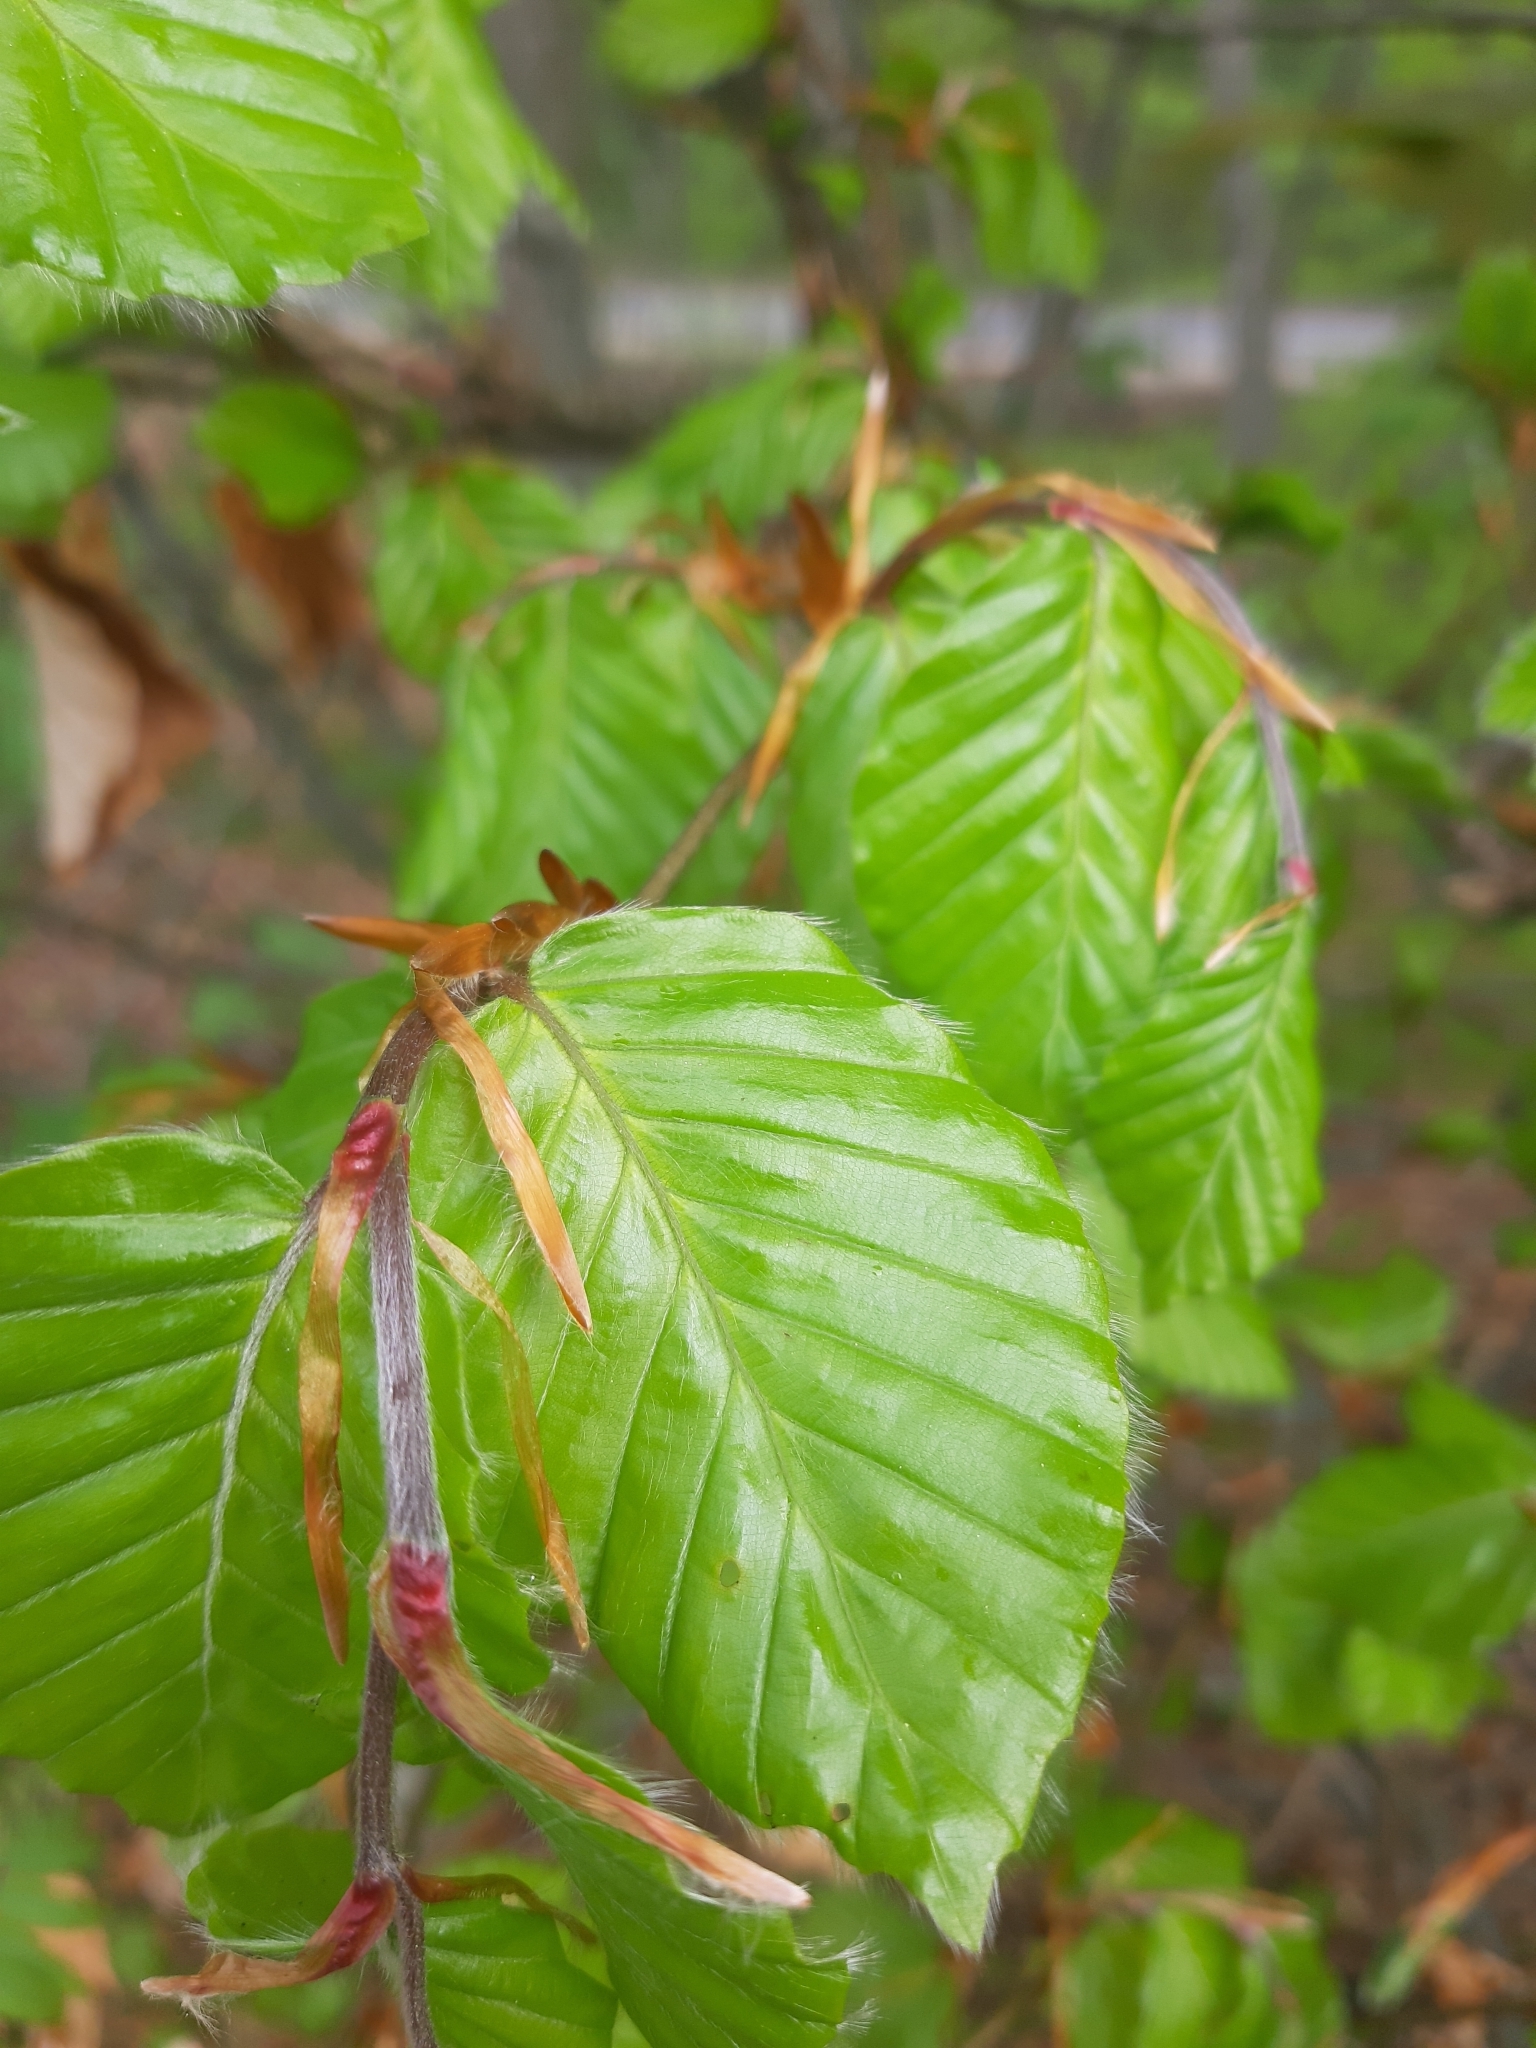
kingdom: Plantae
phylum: Tracheophyta
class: Magnoliopsida
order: Fagales
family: Fagaceae
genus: Fagus
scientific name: Fagus sylvatica
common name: Beech
